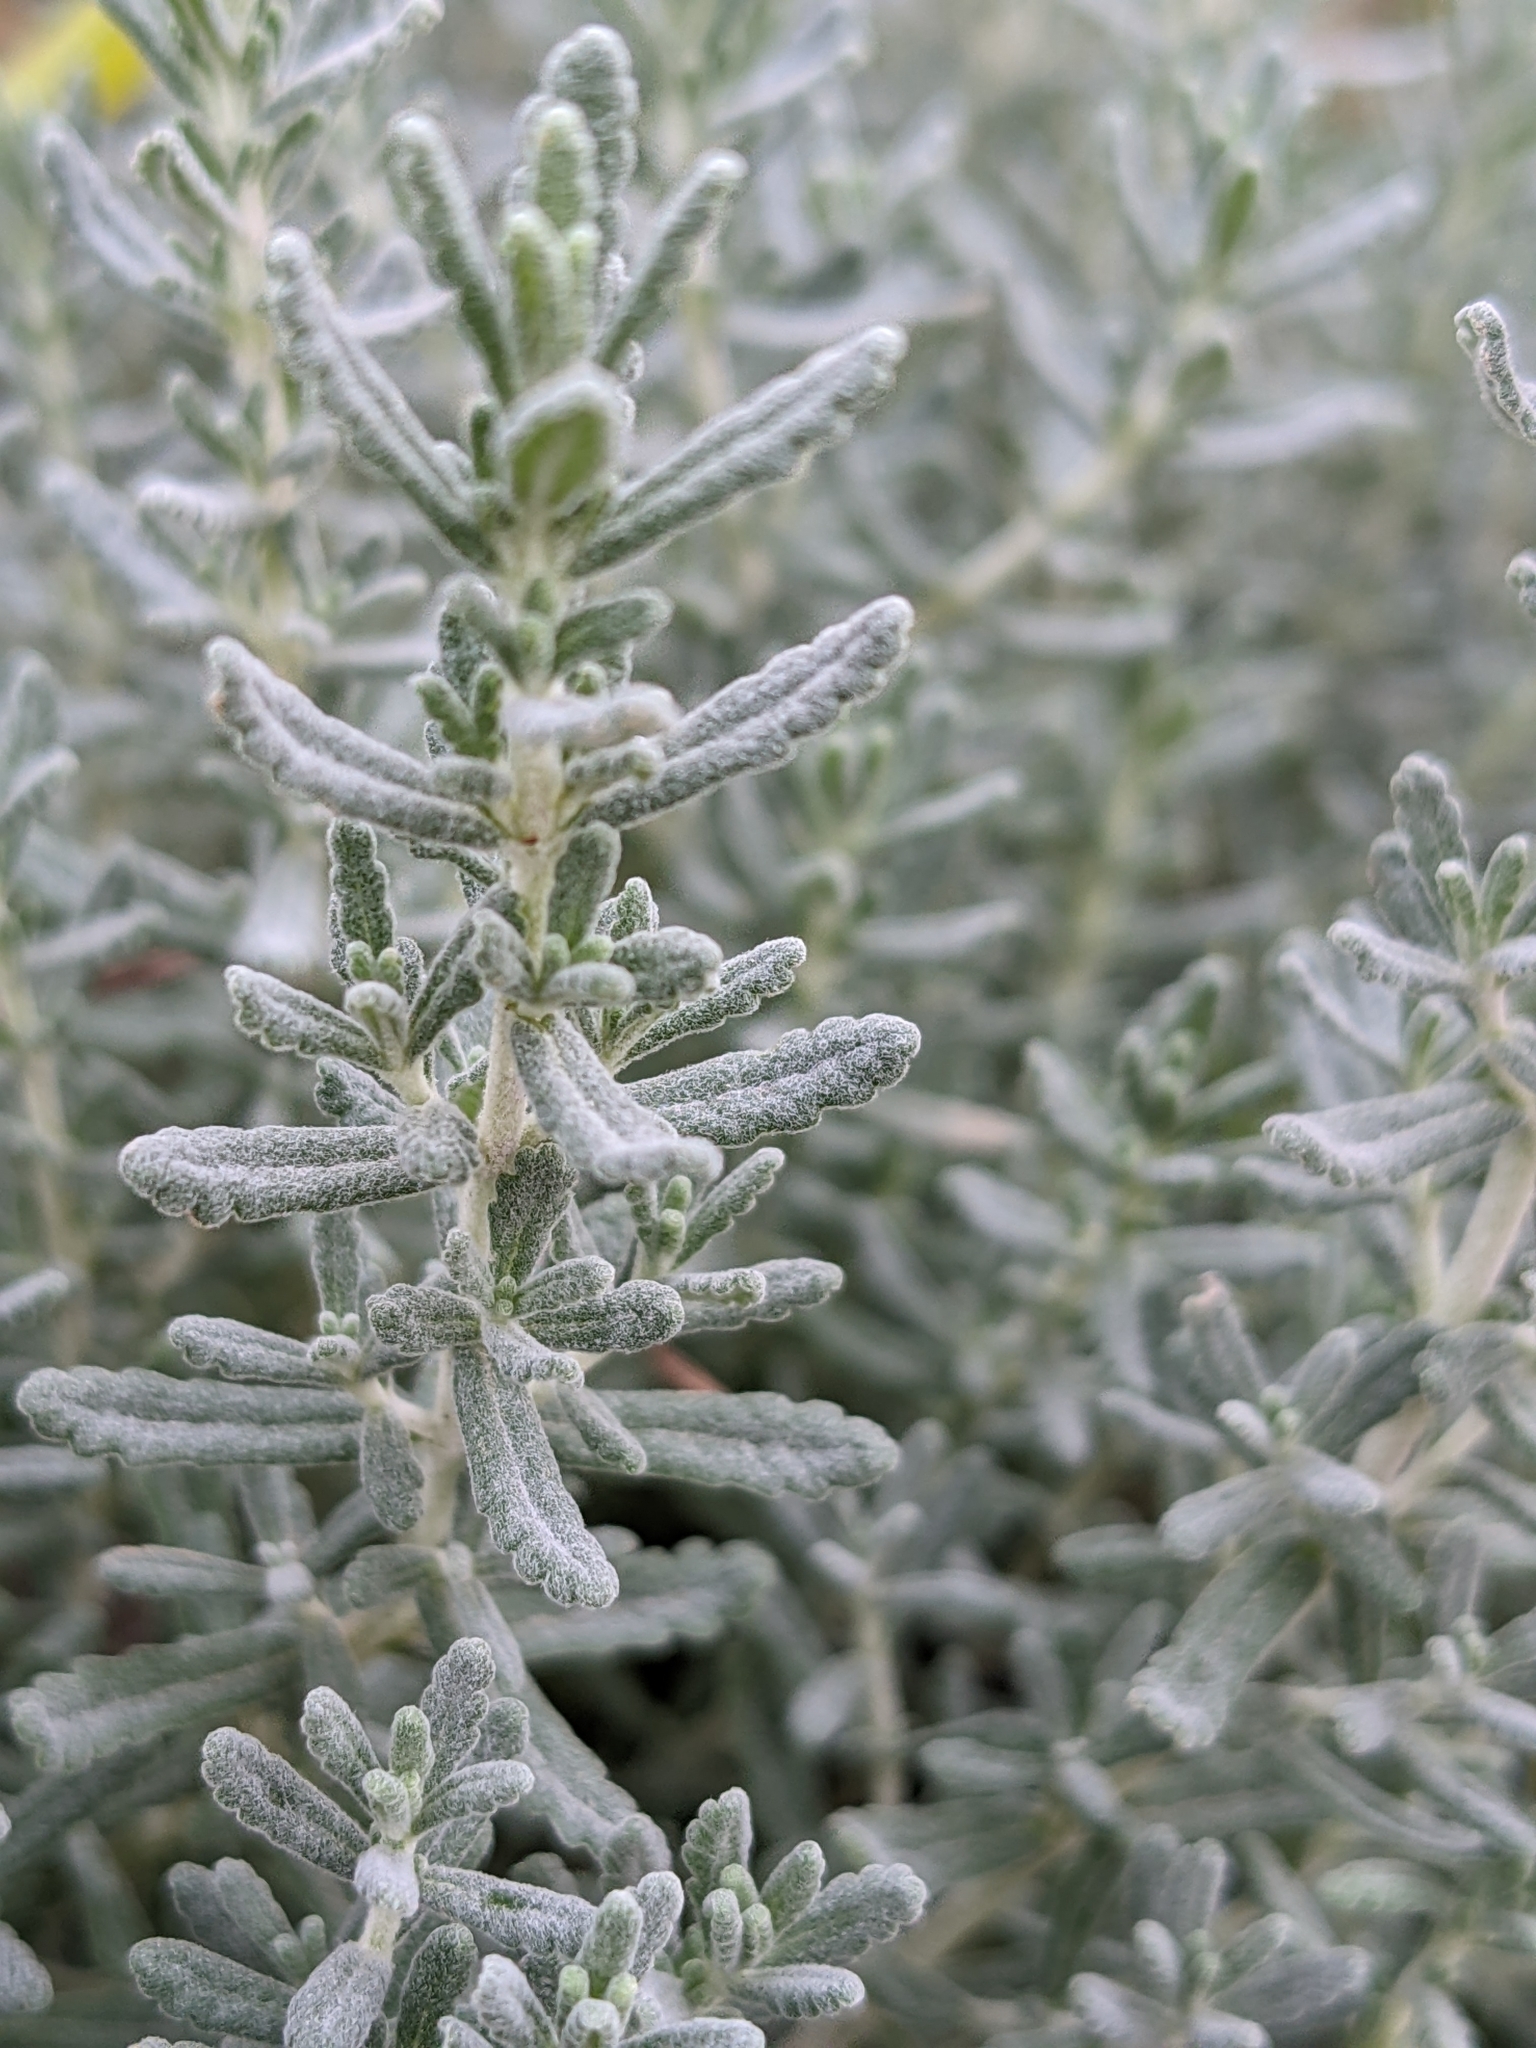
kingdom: Plantae
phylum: Tracheophyta
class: Magnoliopsida
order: Lamiales
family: Lamiaceae
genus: Teucrium
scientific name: Teucrium polium
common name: Poley
